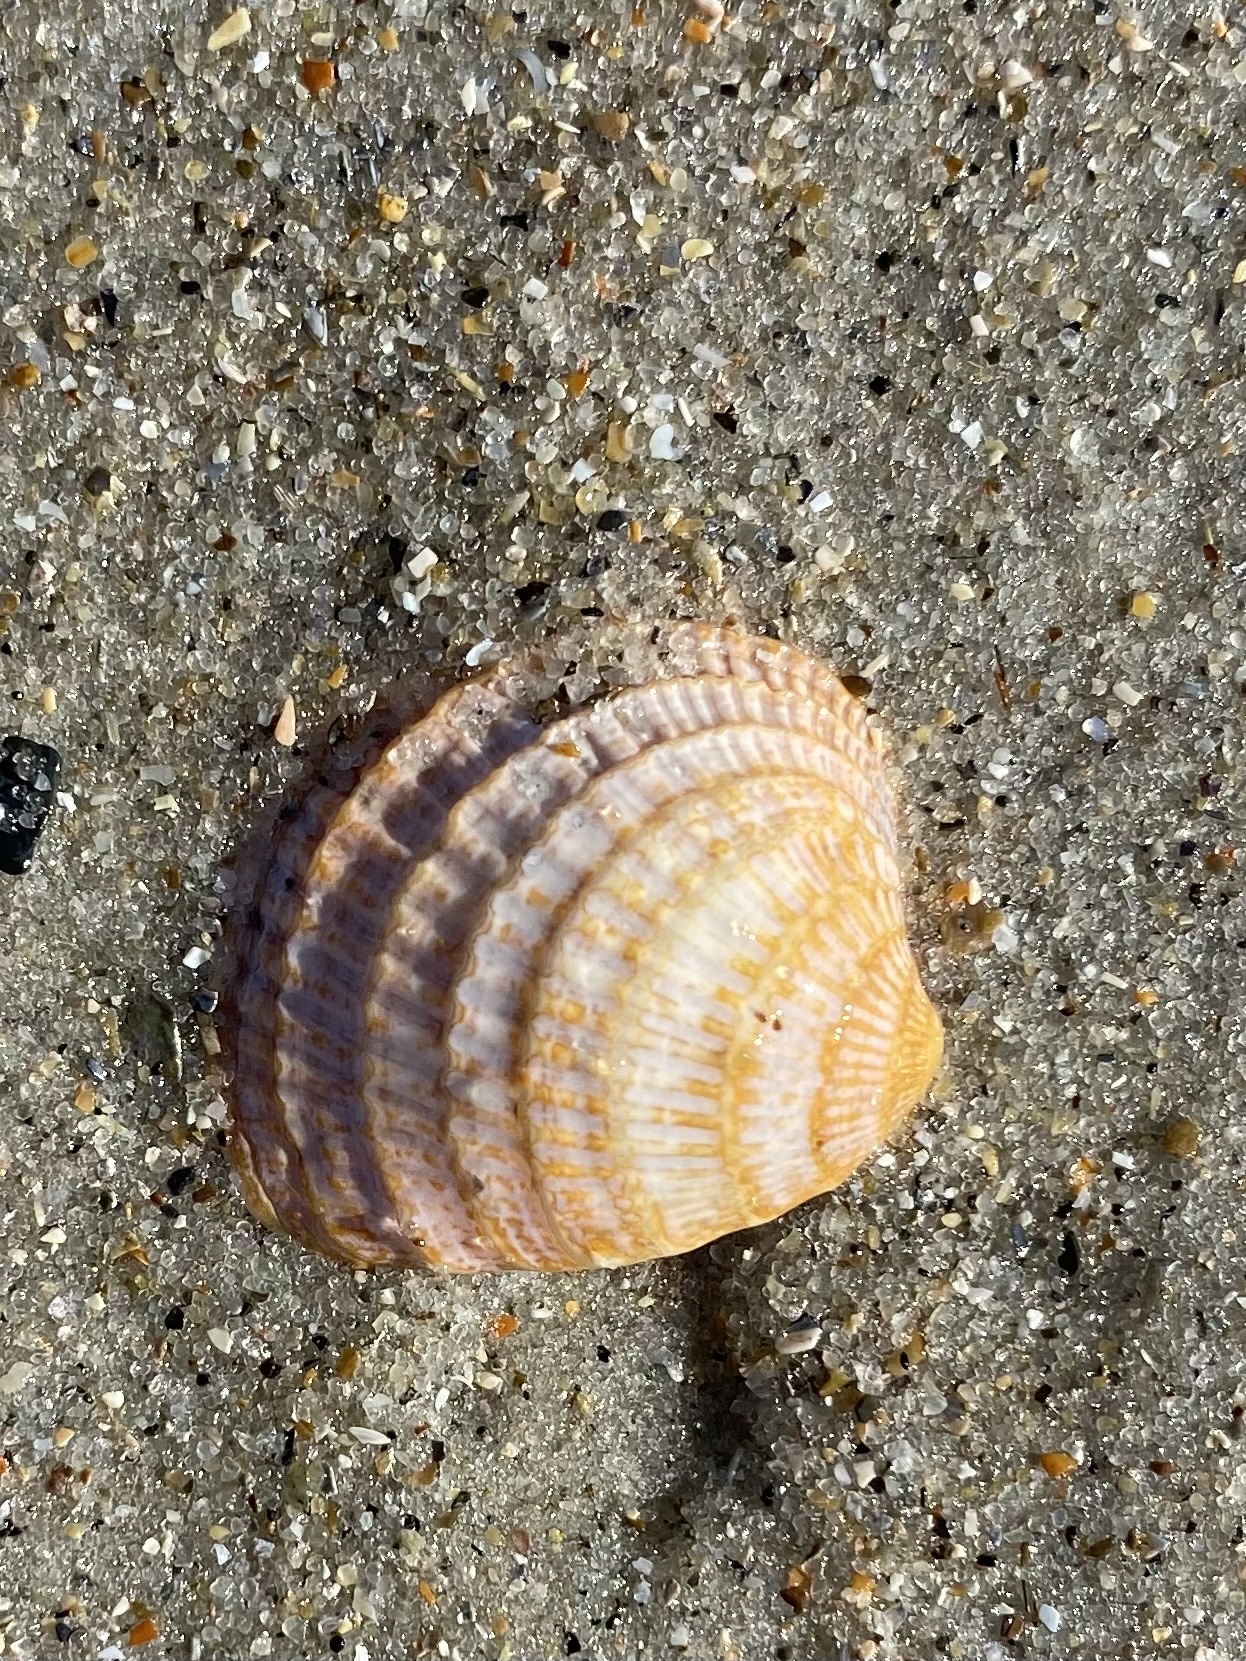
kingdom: Animalia
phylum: Mollusca
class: Bivalvia
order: Venerida
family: Veneridae
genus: Chione
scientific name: Chione elevata
